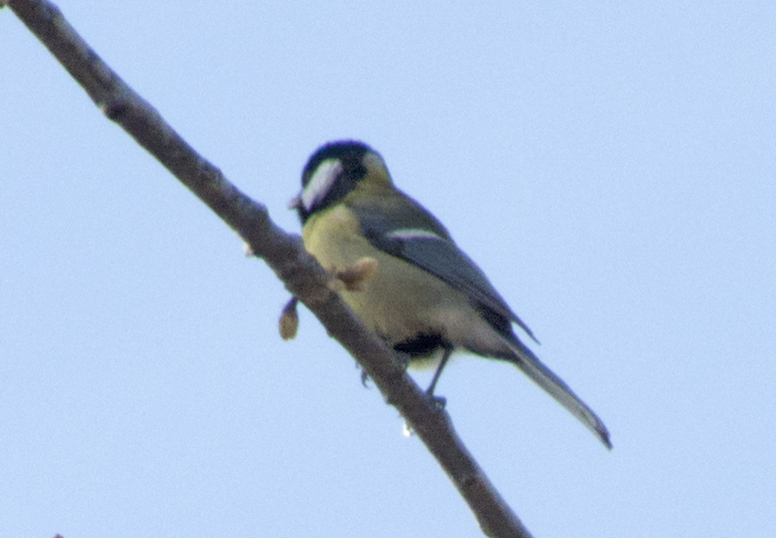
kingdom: Animalia
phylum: Chordata
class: Aves
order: Passeriformes
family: Paridae
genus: Parus
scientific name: Parus major
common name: Great tit
